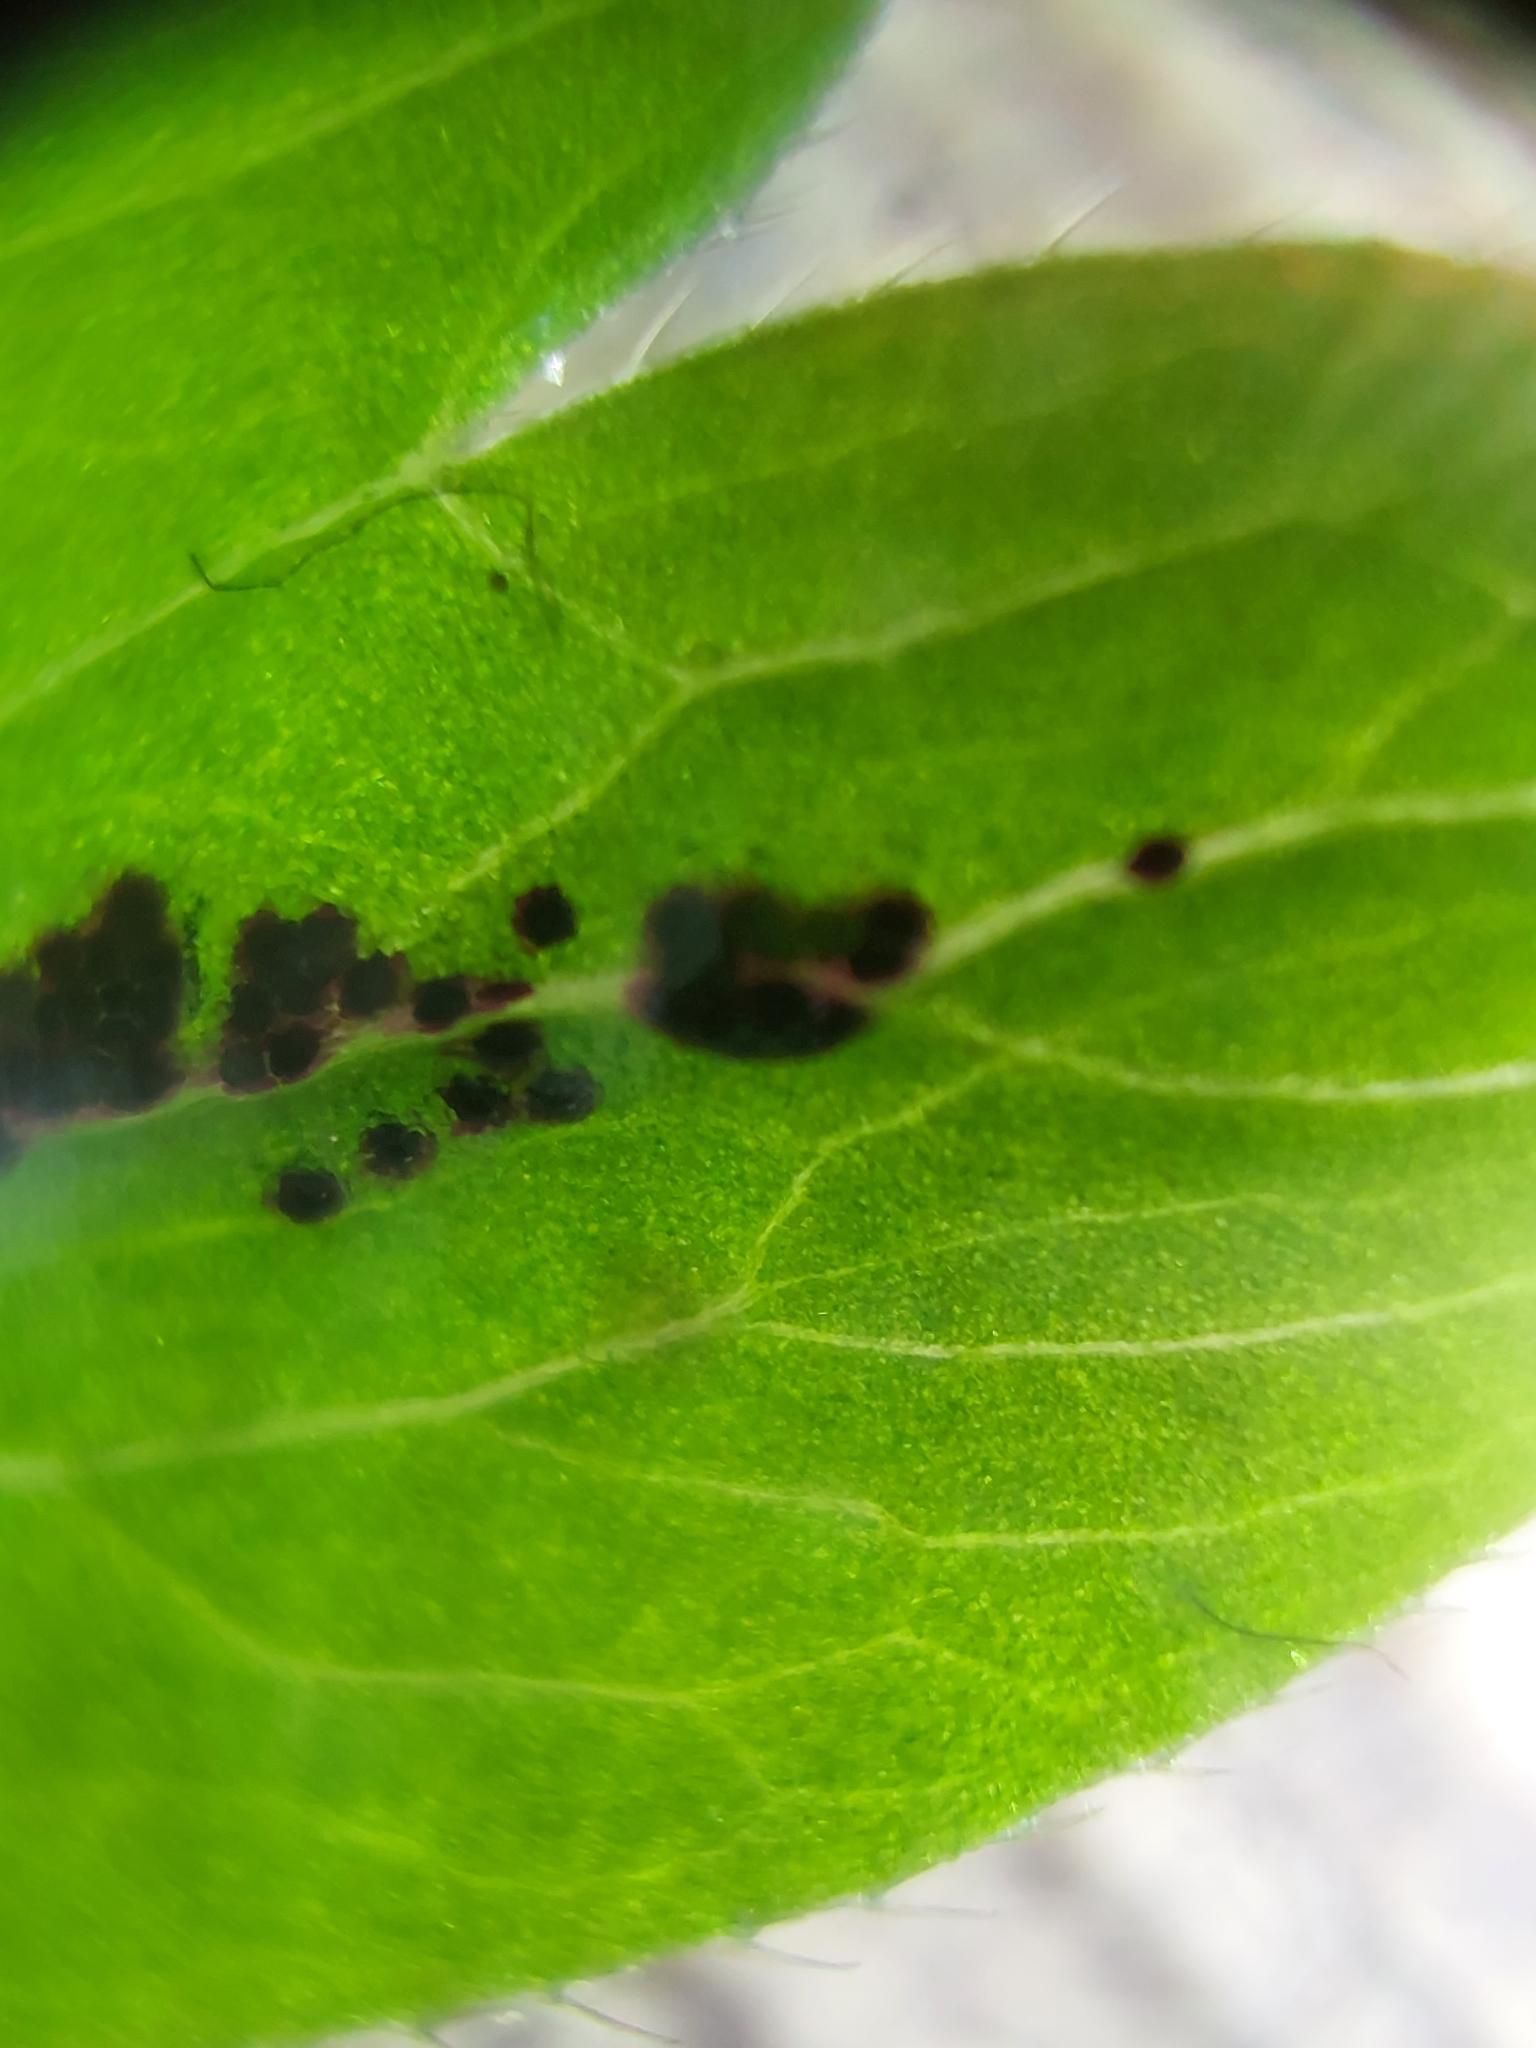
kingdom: Fungi
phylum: Chytridiomycota
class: Chytridiomycetes
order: Chytridiales
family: Synchytriaceae
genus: Synchytrium
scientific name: Synchytrium anemones
